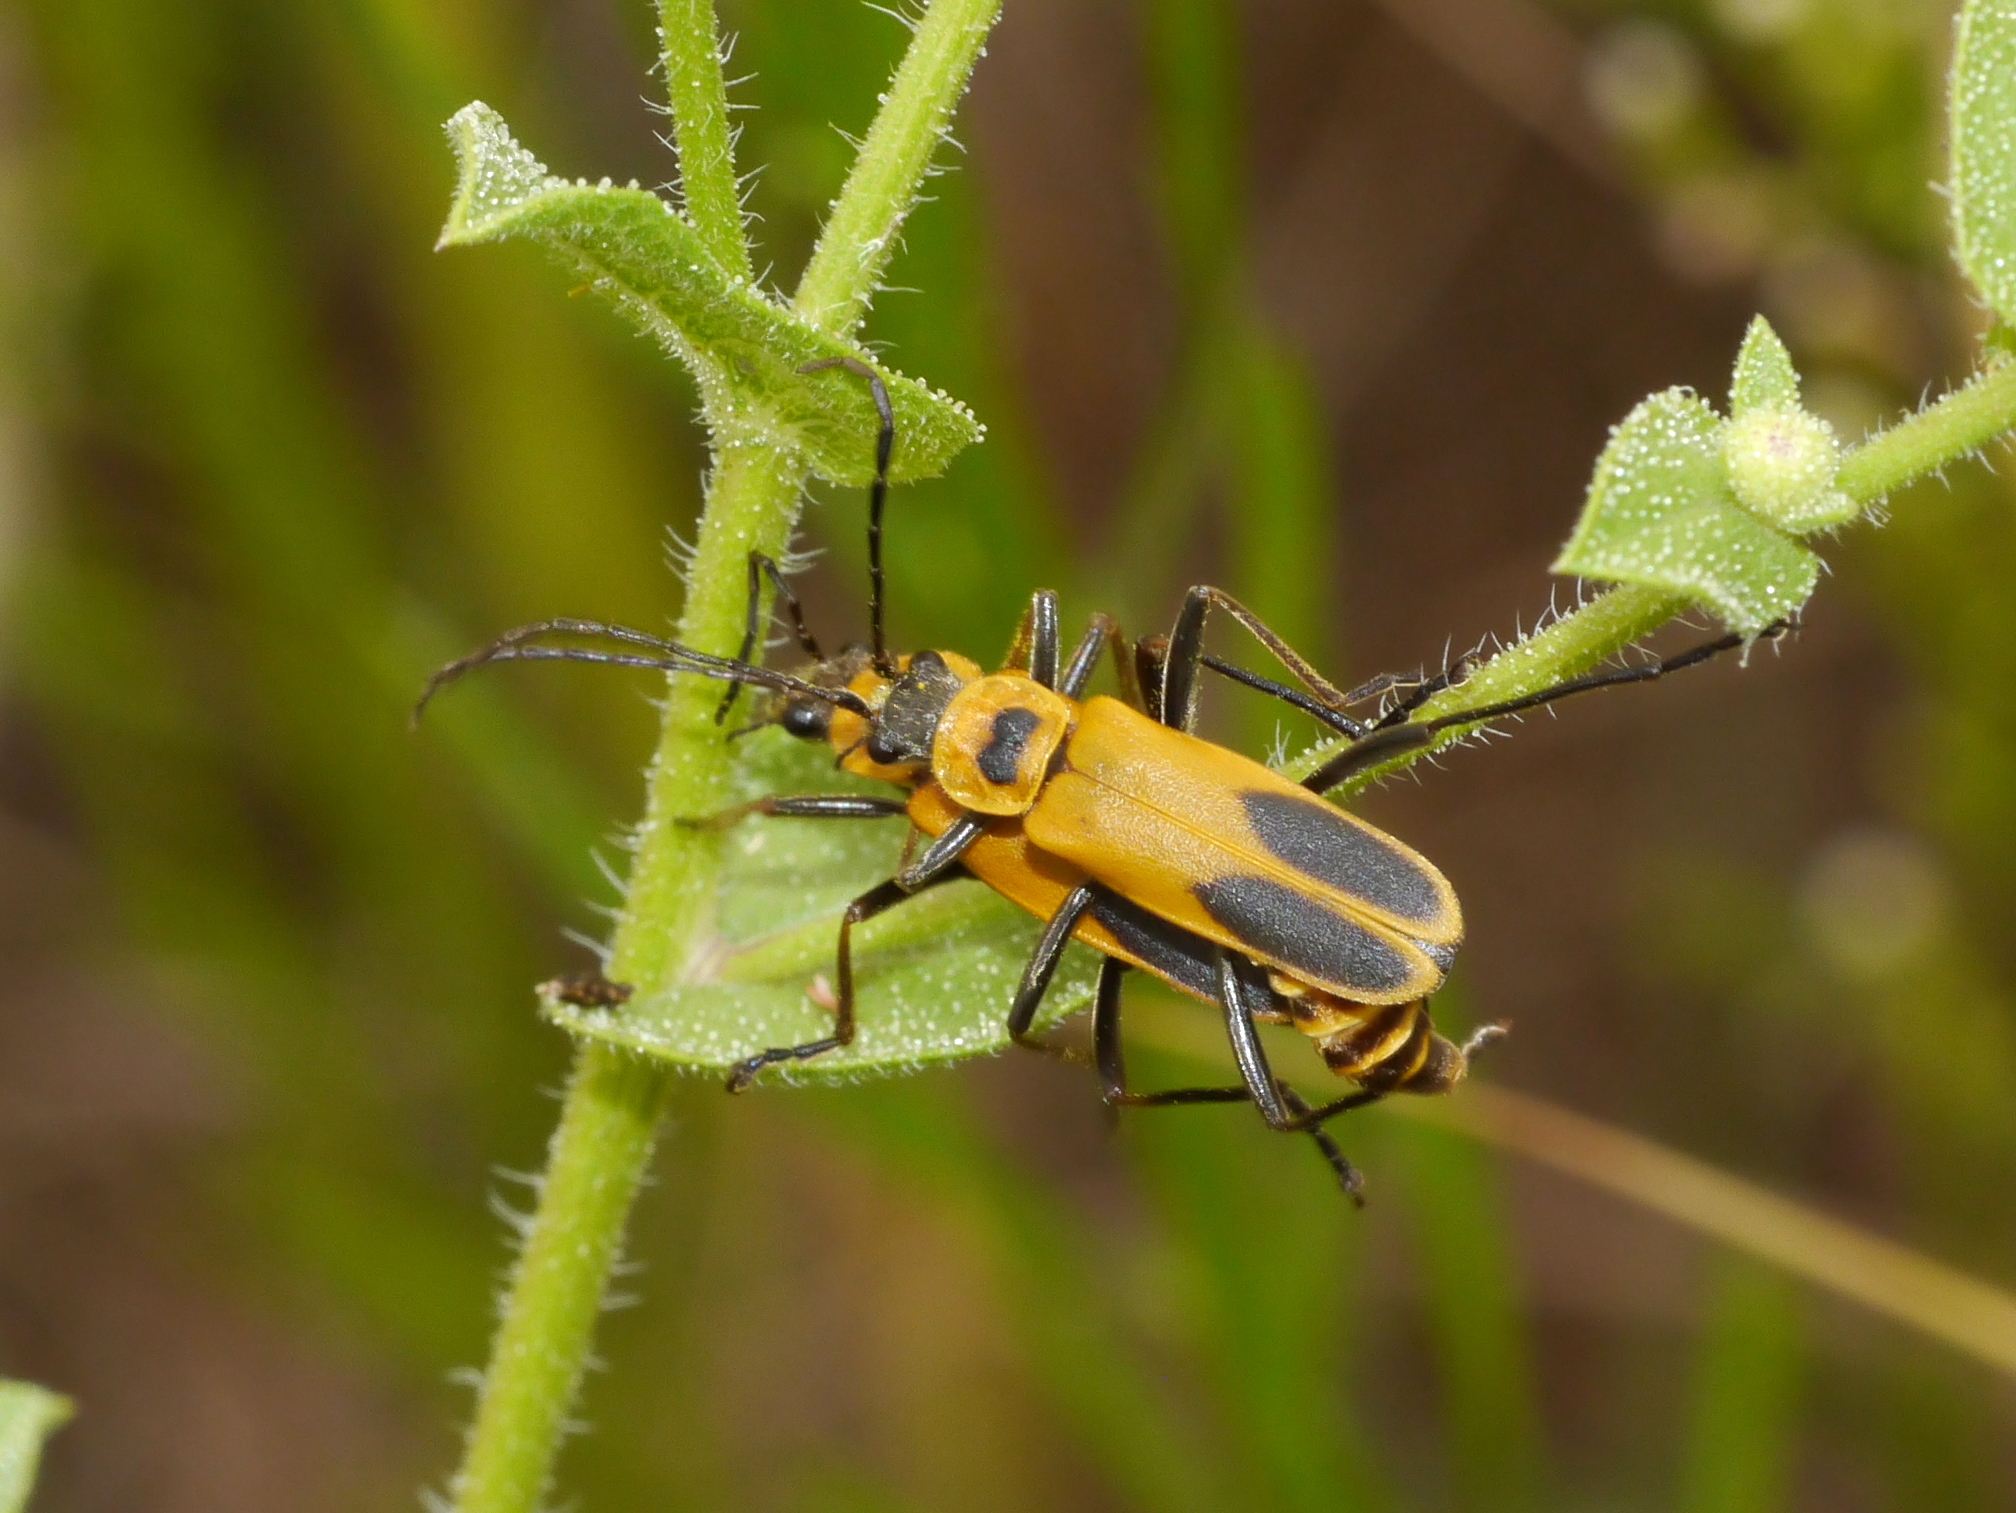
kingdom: Animalia
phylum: Arthropoda
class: Insecta
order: Coleoptera
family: Cantharidae
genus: Chauliognathus
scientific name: Chauliognathus pensylvanicus
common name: Goldenrod soldier beetle
